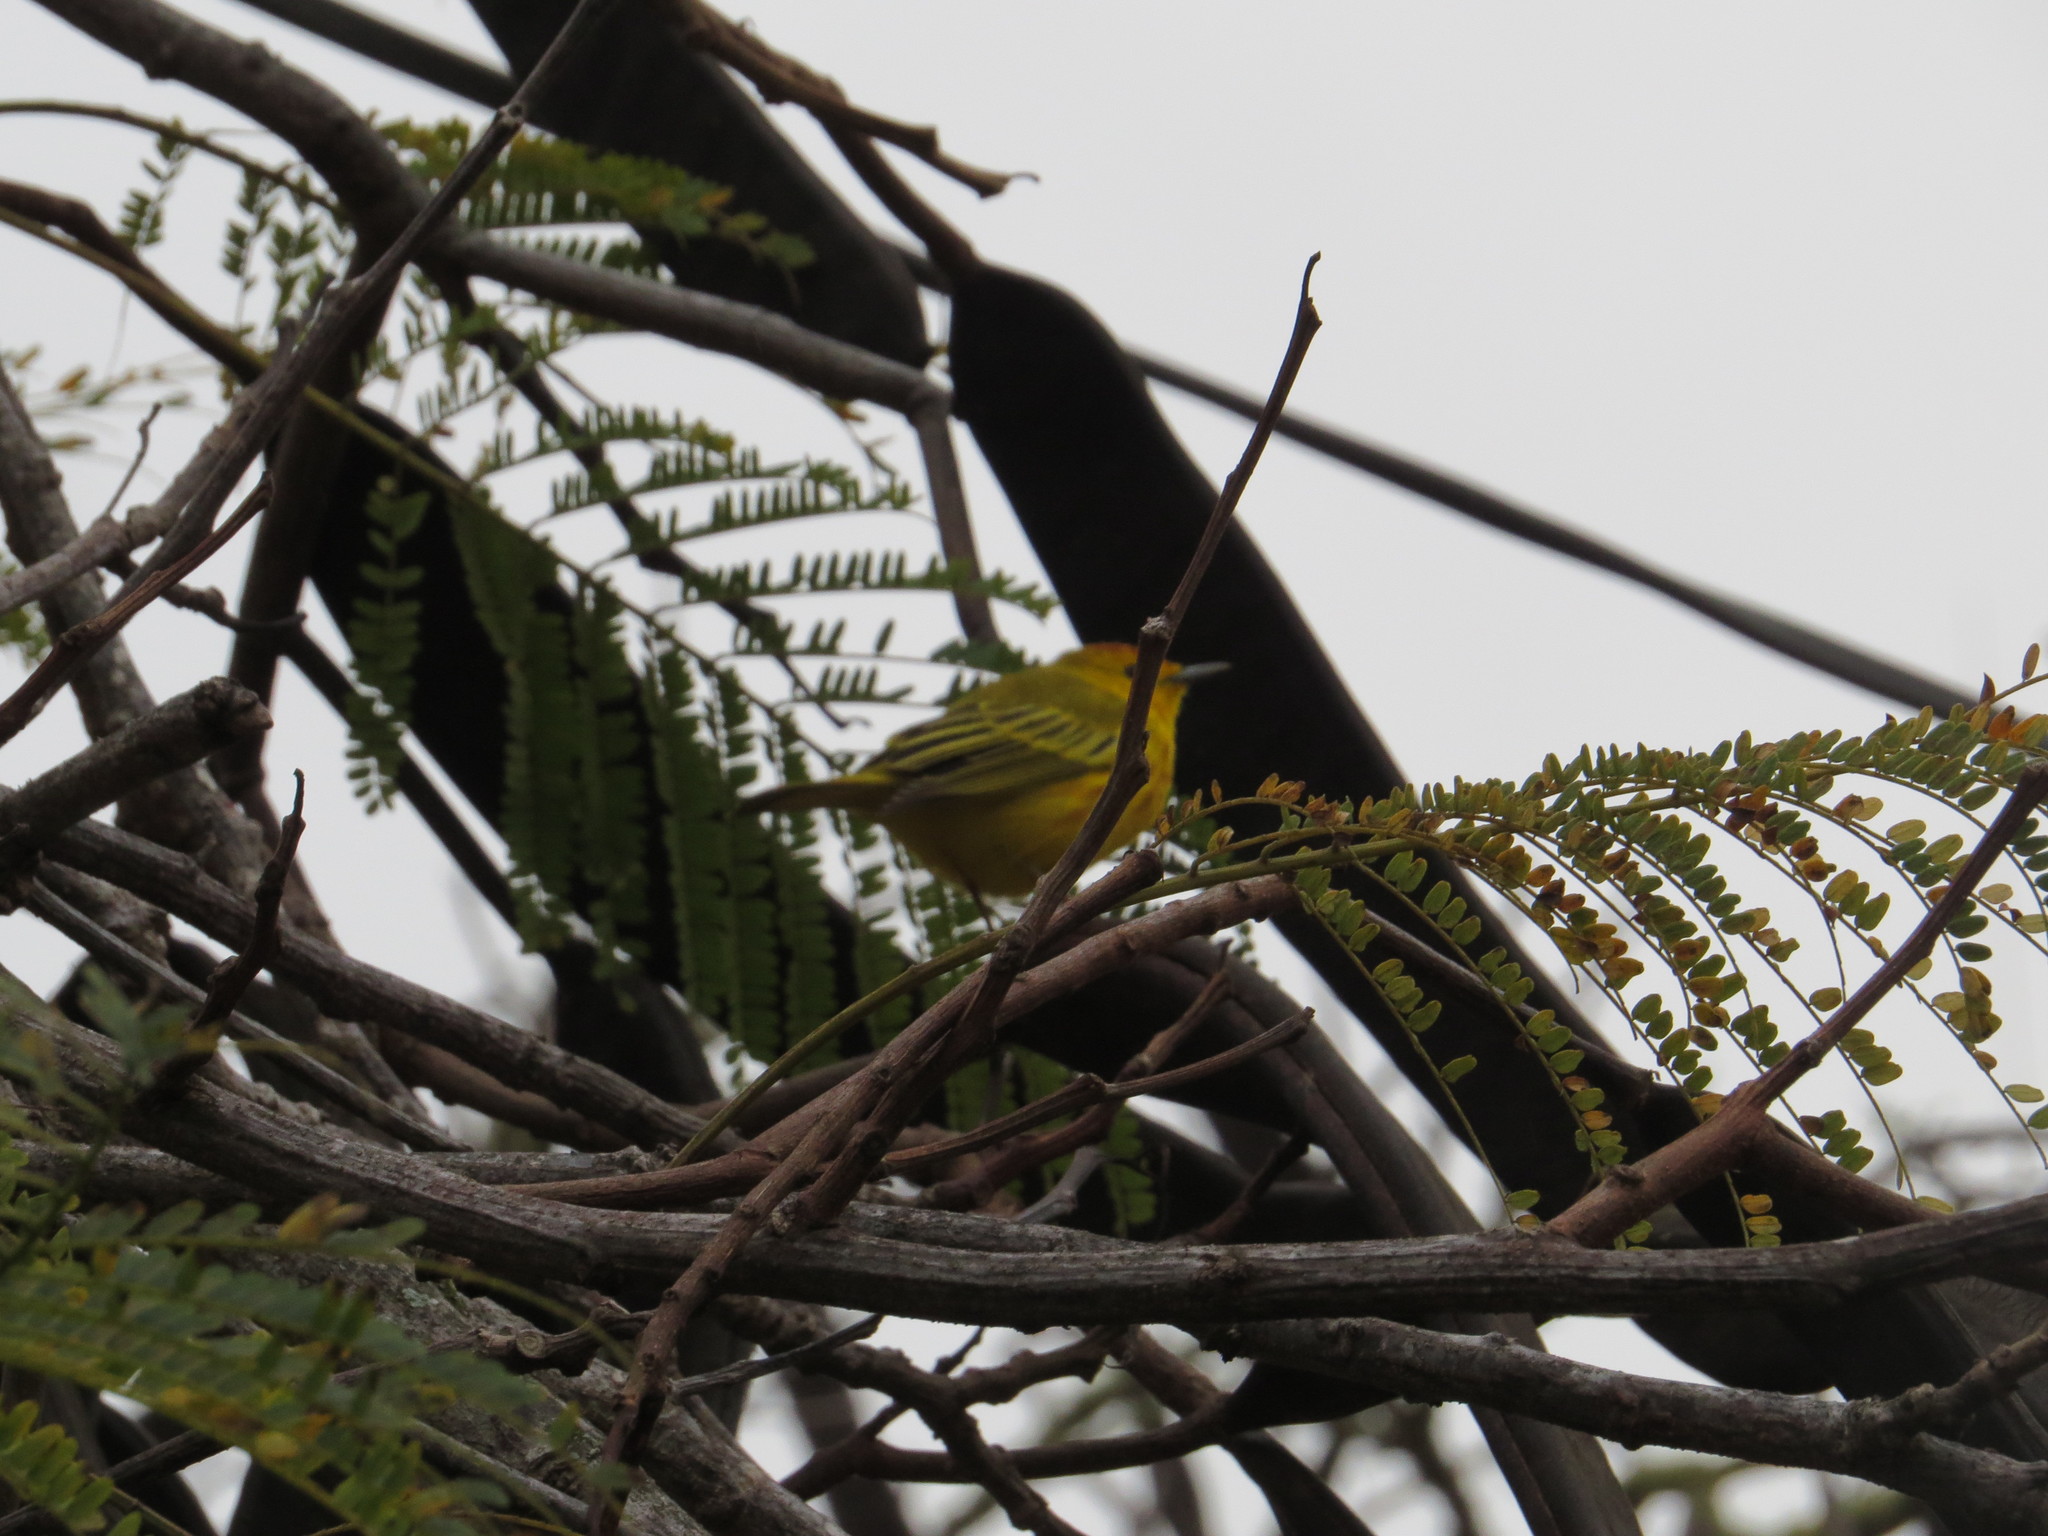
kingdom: Animalia
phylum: Chordata
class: Aves
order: Passeriformes
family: Parulidae
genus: Setophaga
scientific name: Setophaga petechia
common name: Yellow warbler
